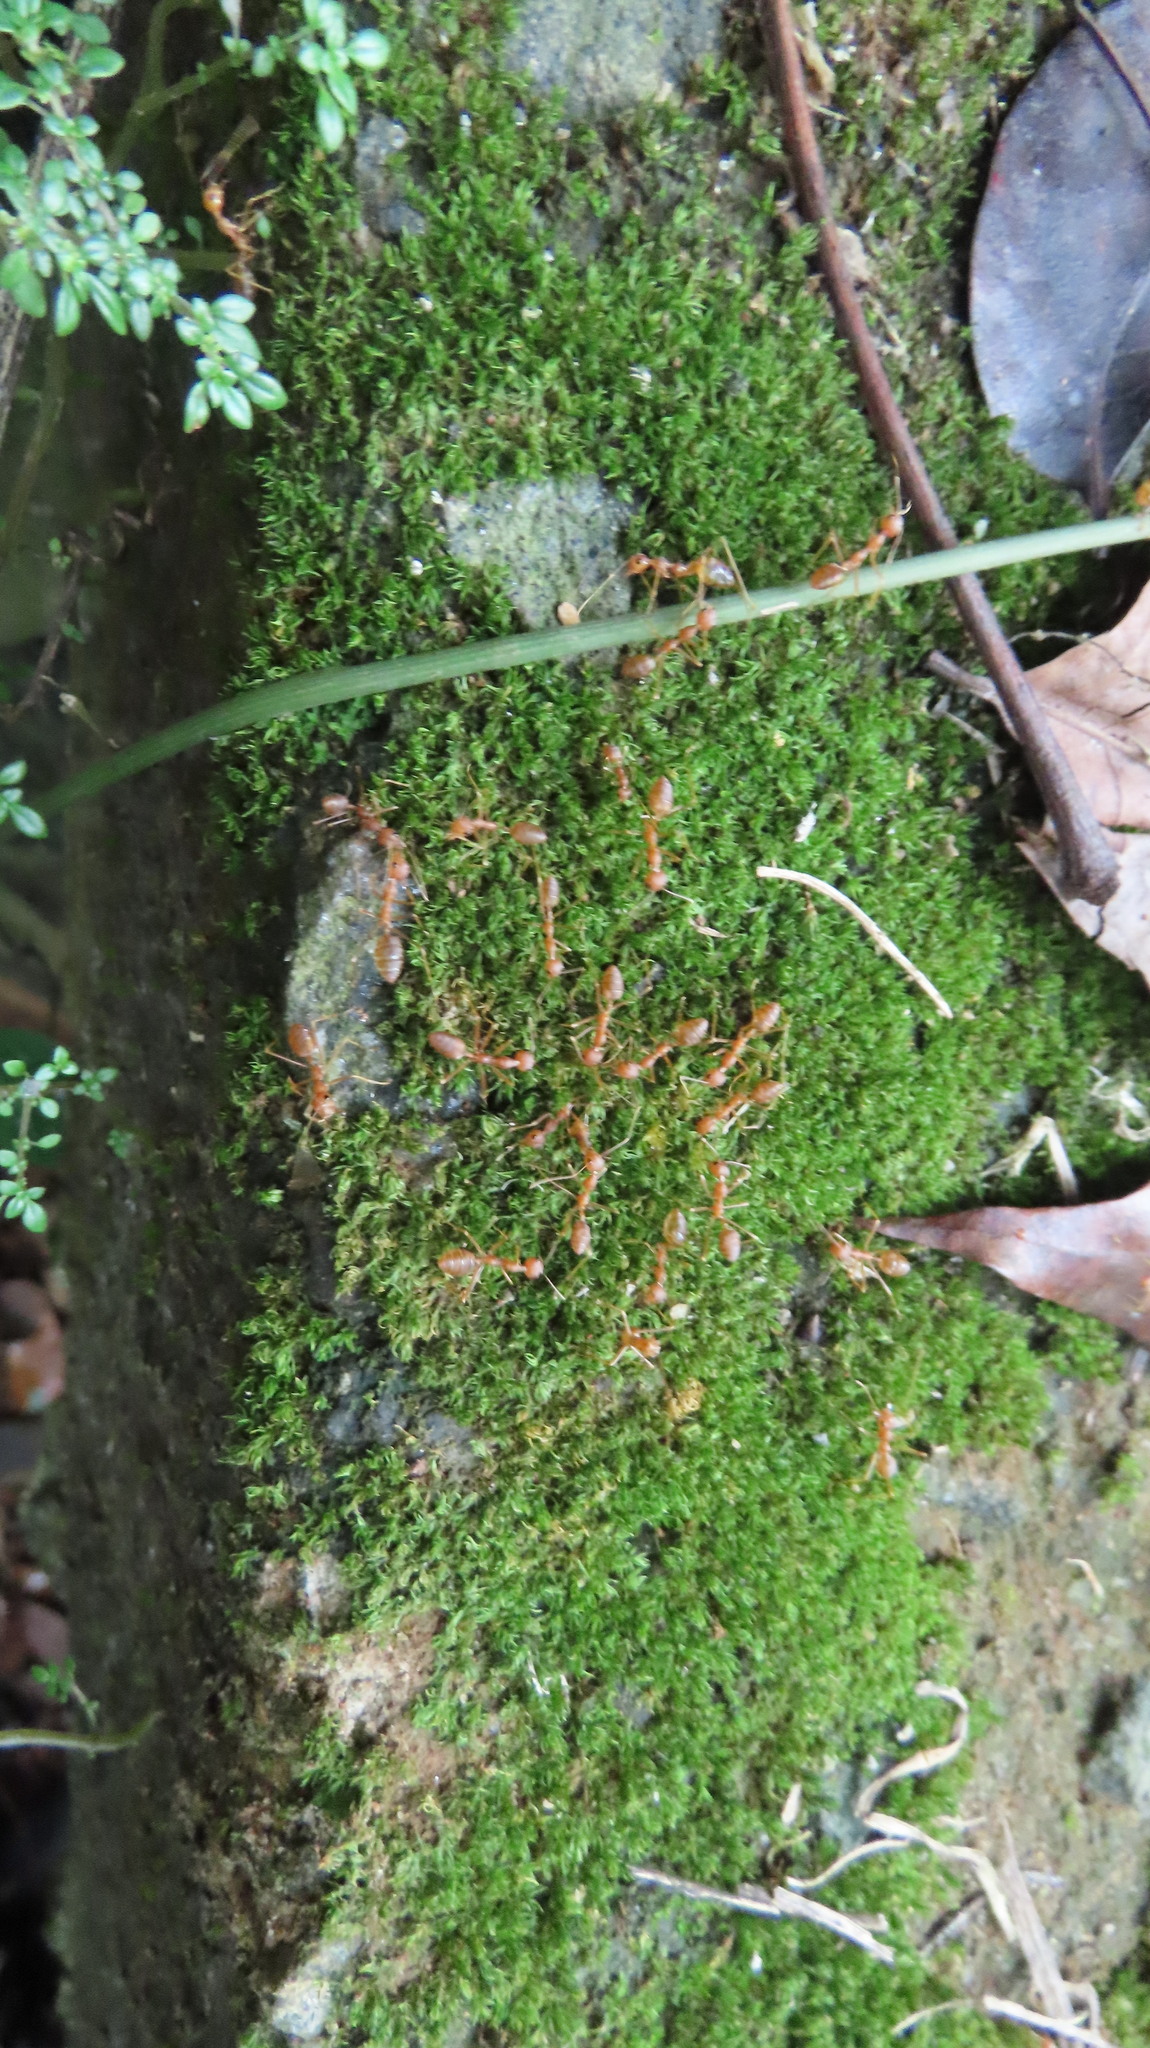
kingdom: Animalia
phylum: Arthropoda
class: Insecta
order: Hymenoptera
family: Formicidae
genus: Oecophylla
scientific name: Oecophylla smaragdina
